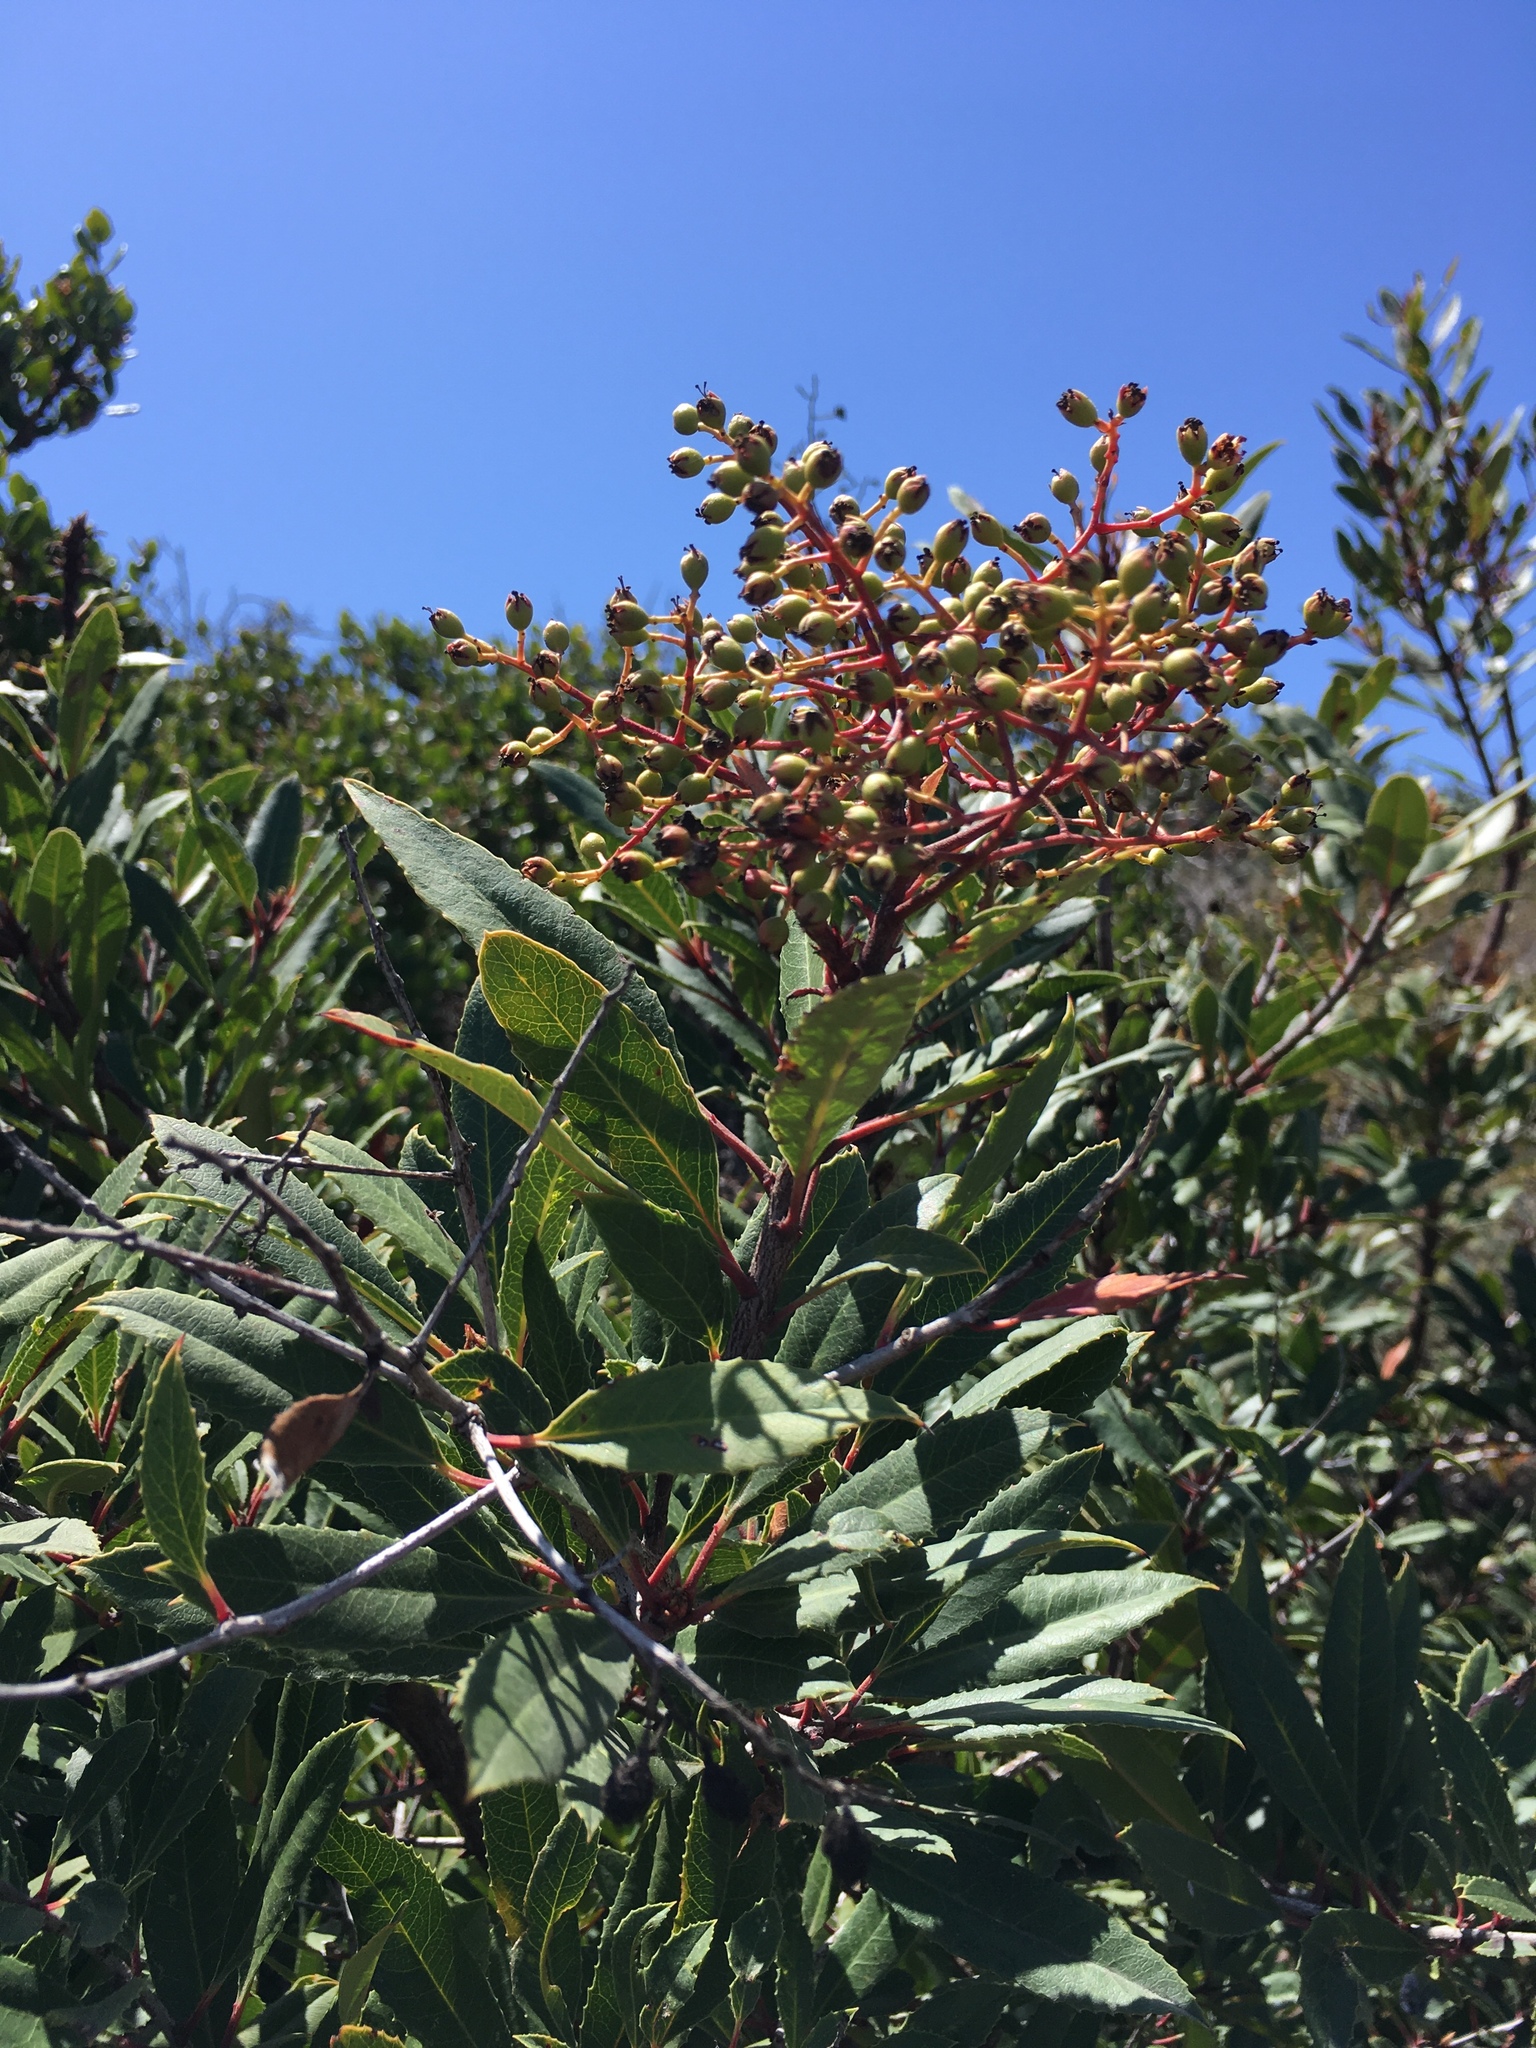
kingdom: Plantae
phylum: Tracheophyta
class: Magnoliopsida
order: Rosales
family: Rosaceae
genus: Heteromeles
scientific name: Heteromeles arbutifolia
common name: California-holly
